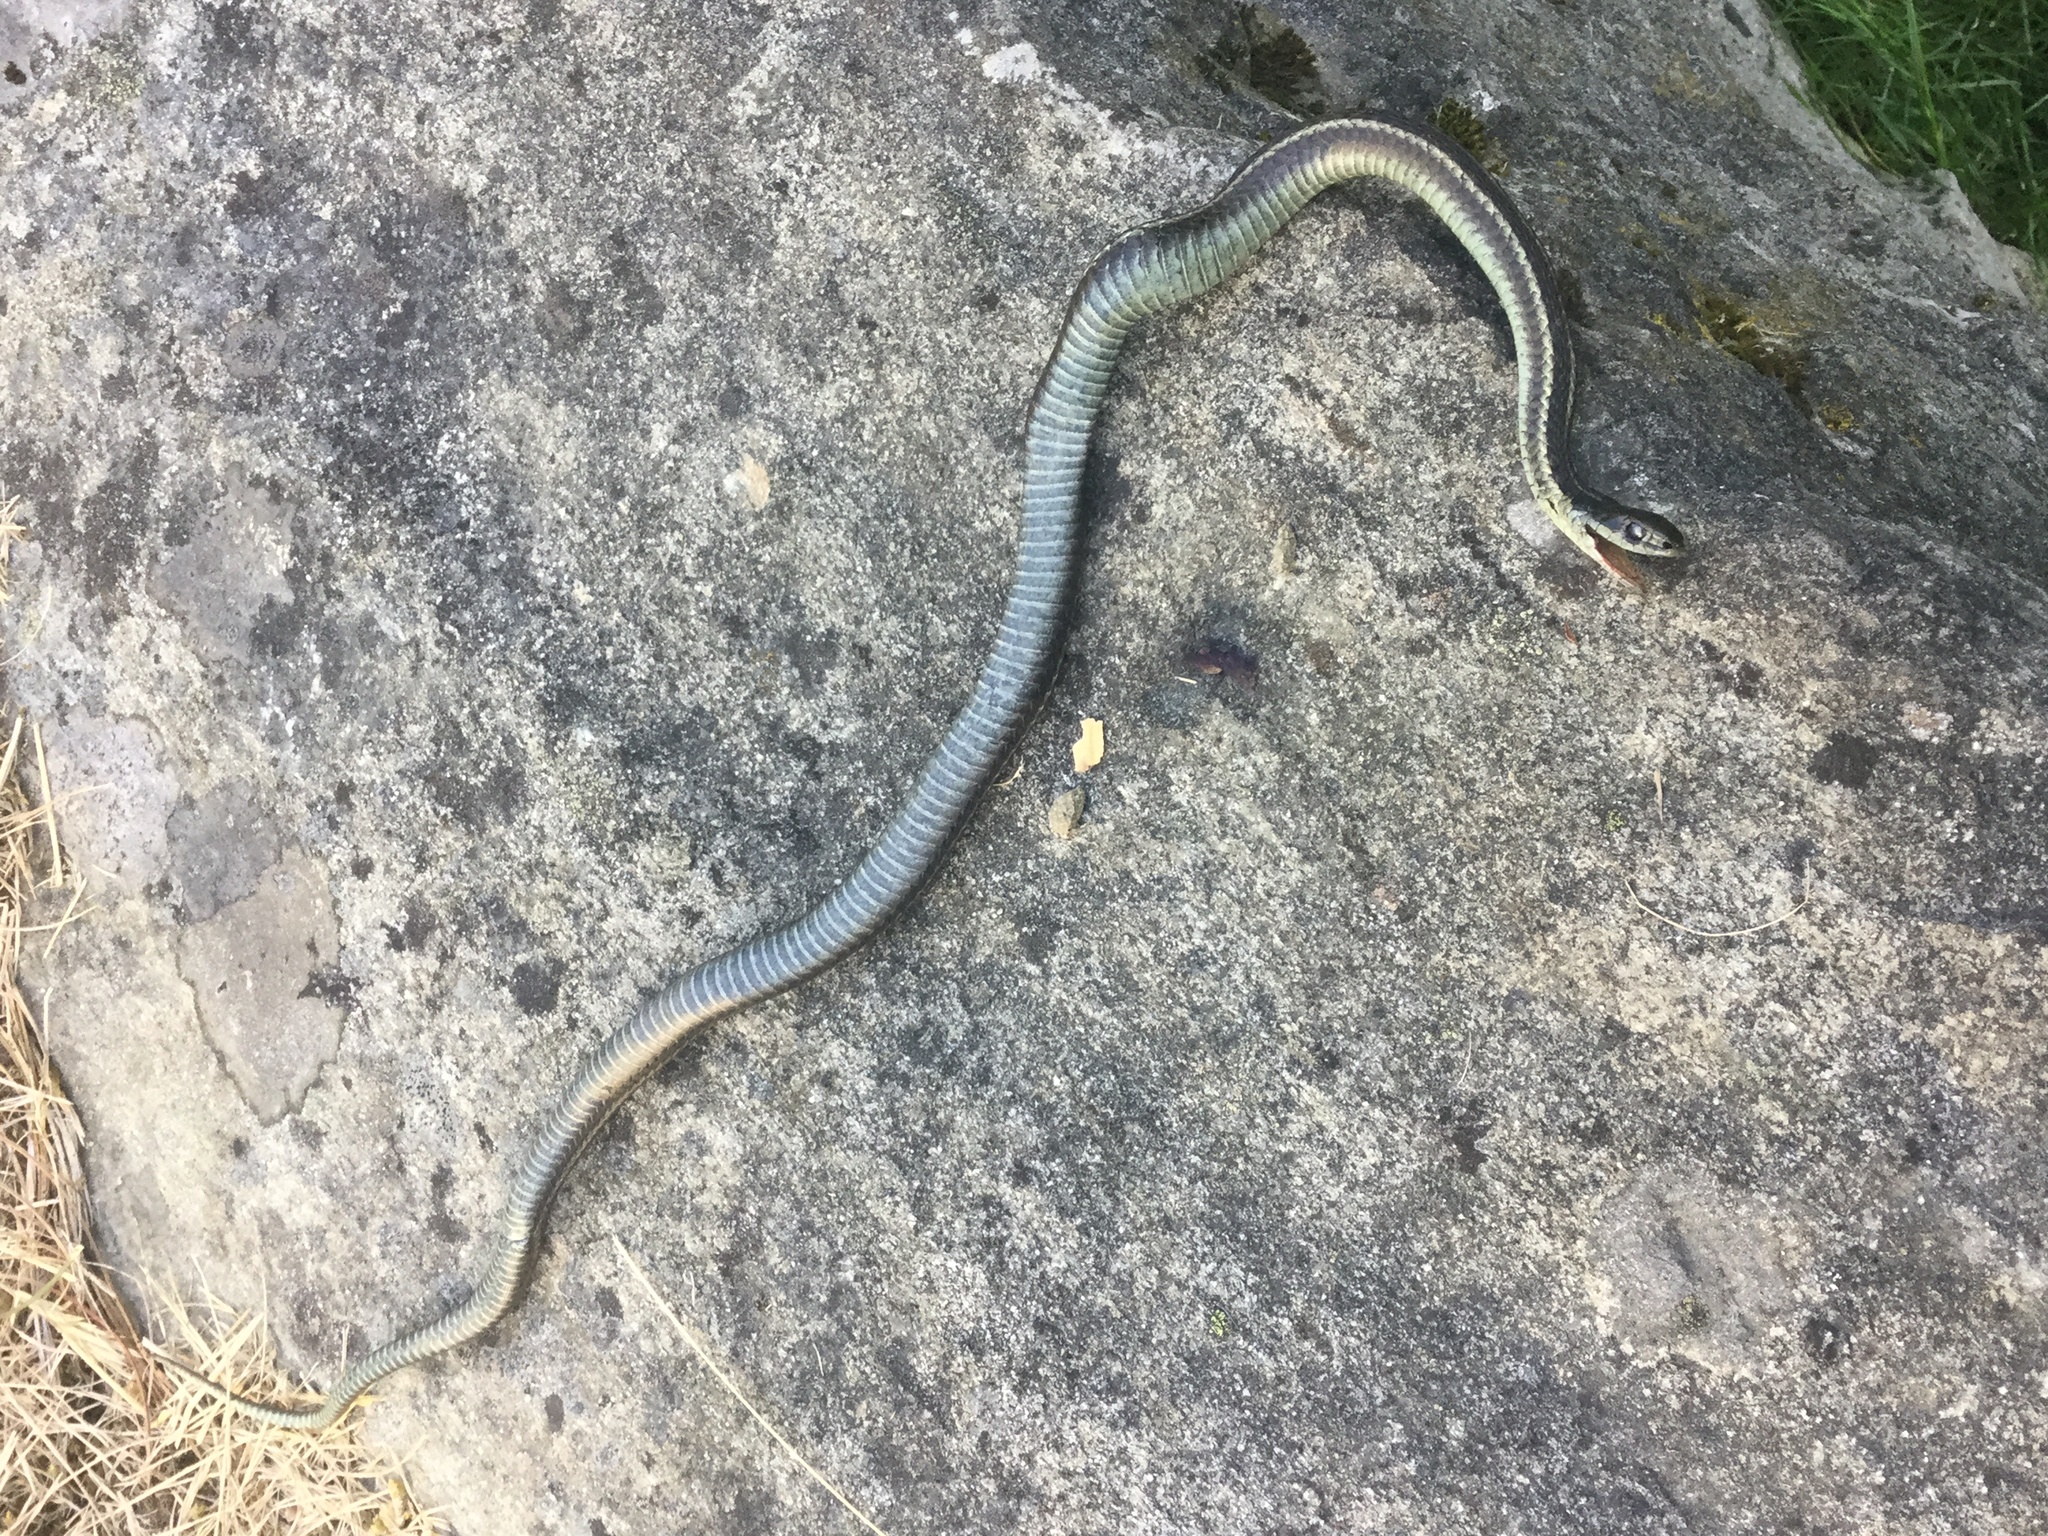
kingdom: Animalia
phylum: Chordata
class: Squamata
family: Colubridae
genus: Thamnophis
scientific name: Thamnophis ordinoides
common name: Northwestern garter snake
